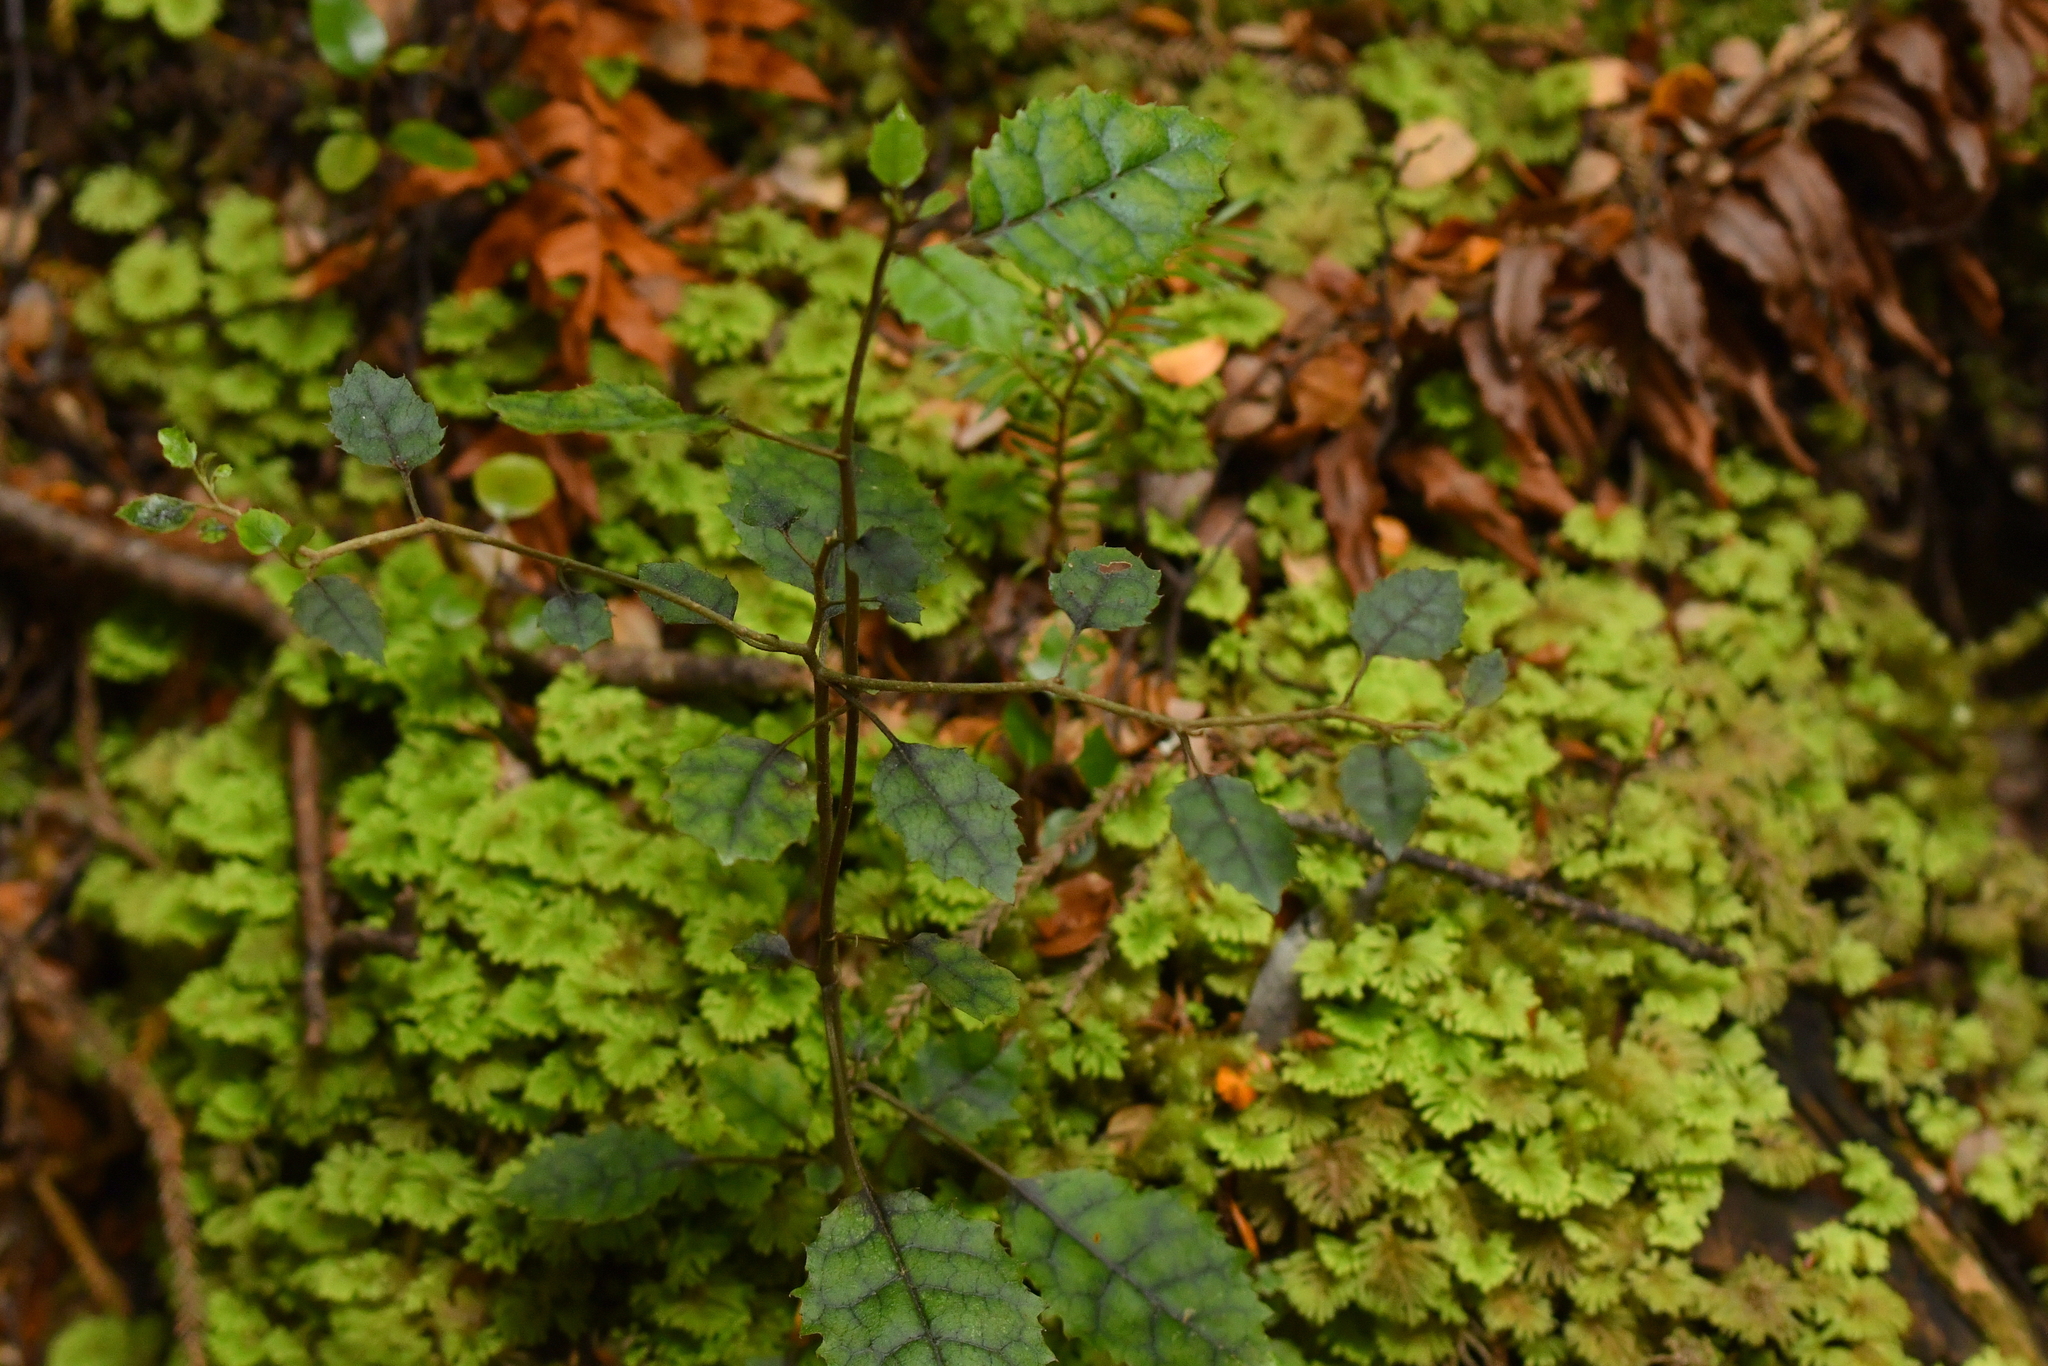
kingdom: Plantae
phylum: Tracheophyta
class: Magnoliopsida
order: Asterales
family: Rousseaceae
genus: Carpodetus
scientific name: Carpodetus serratus
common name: White mapau
